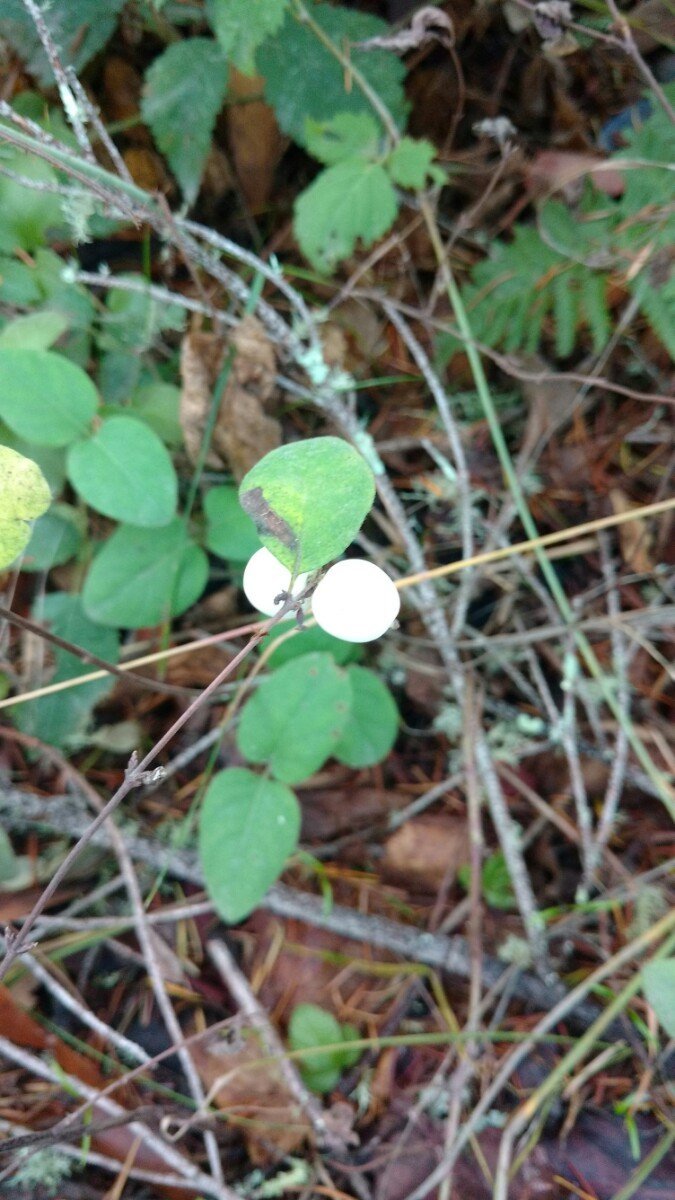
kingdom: Plantae
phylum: Tracheophyta
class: Magnoliopsida
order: Dipsacales
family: Caprifoliaceae
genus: Symphoricarpos
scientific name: Symphoricarpos albus
